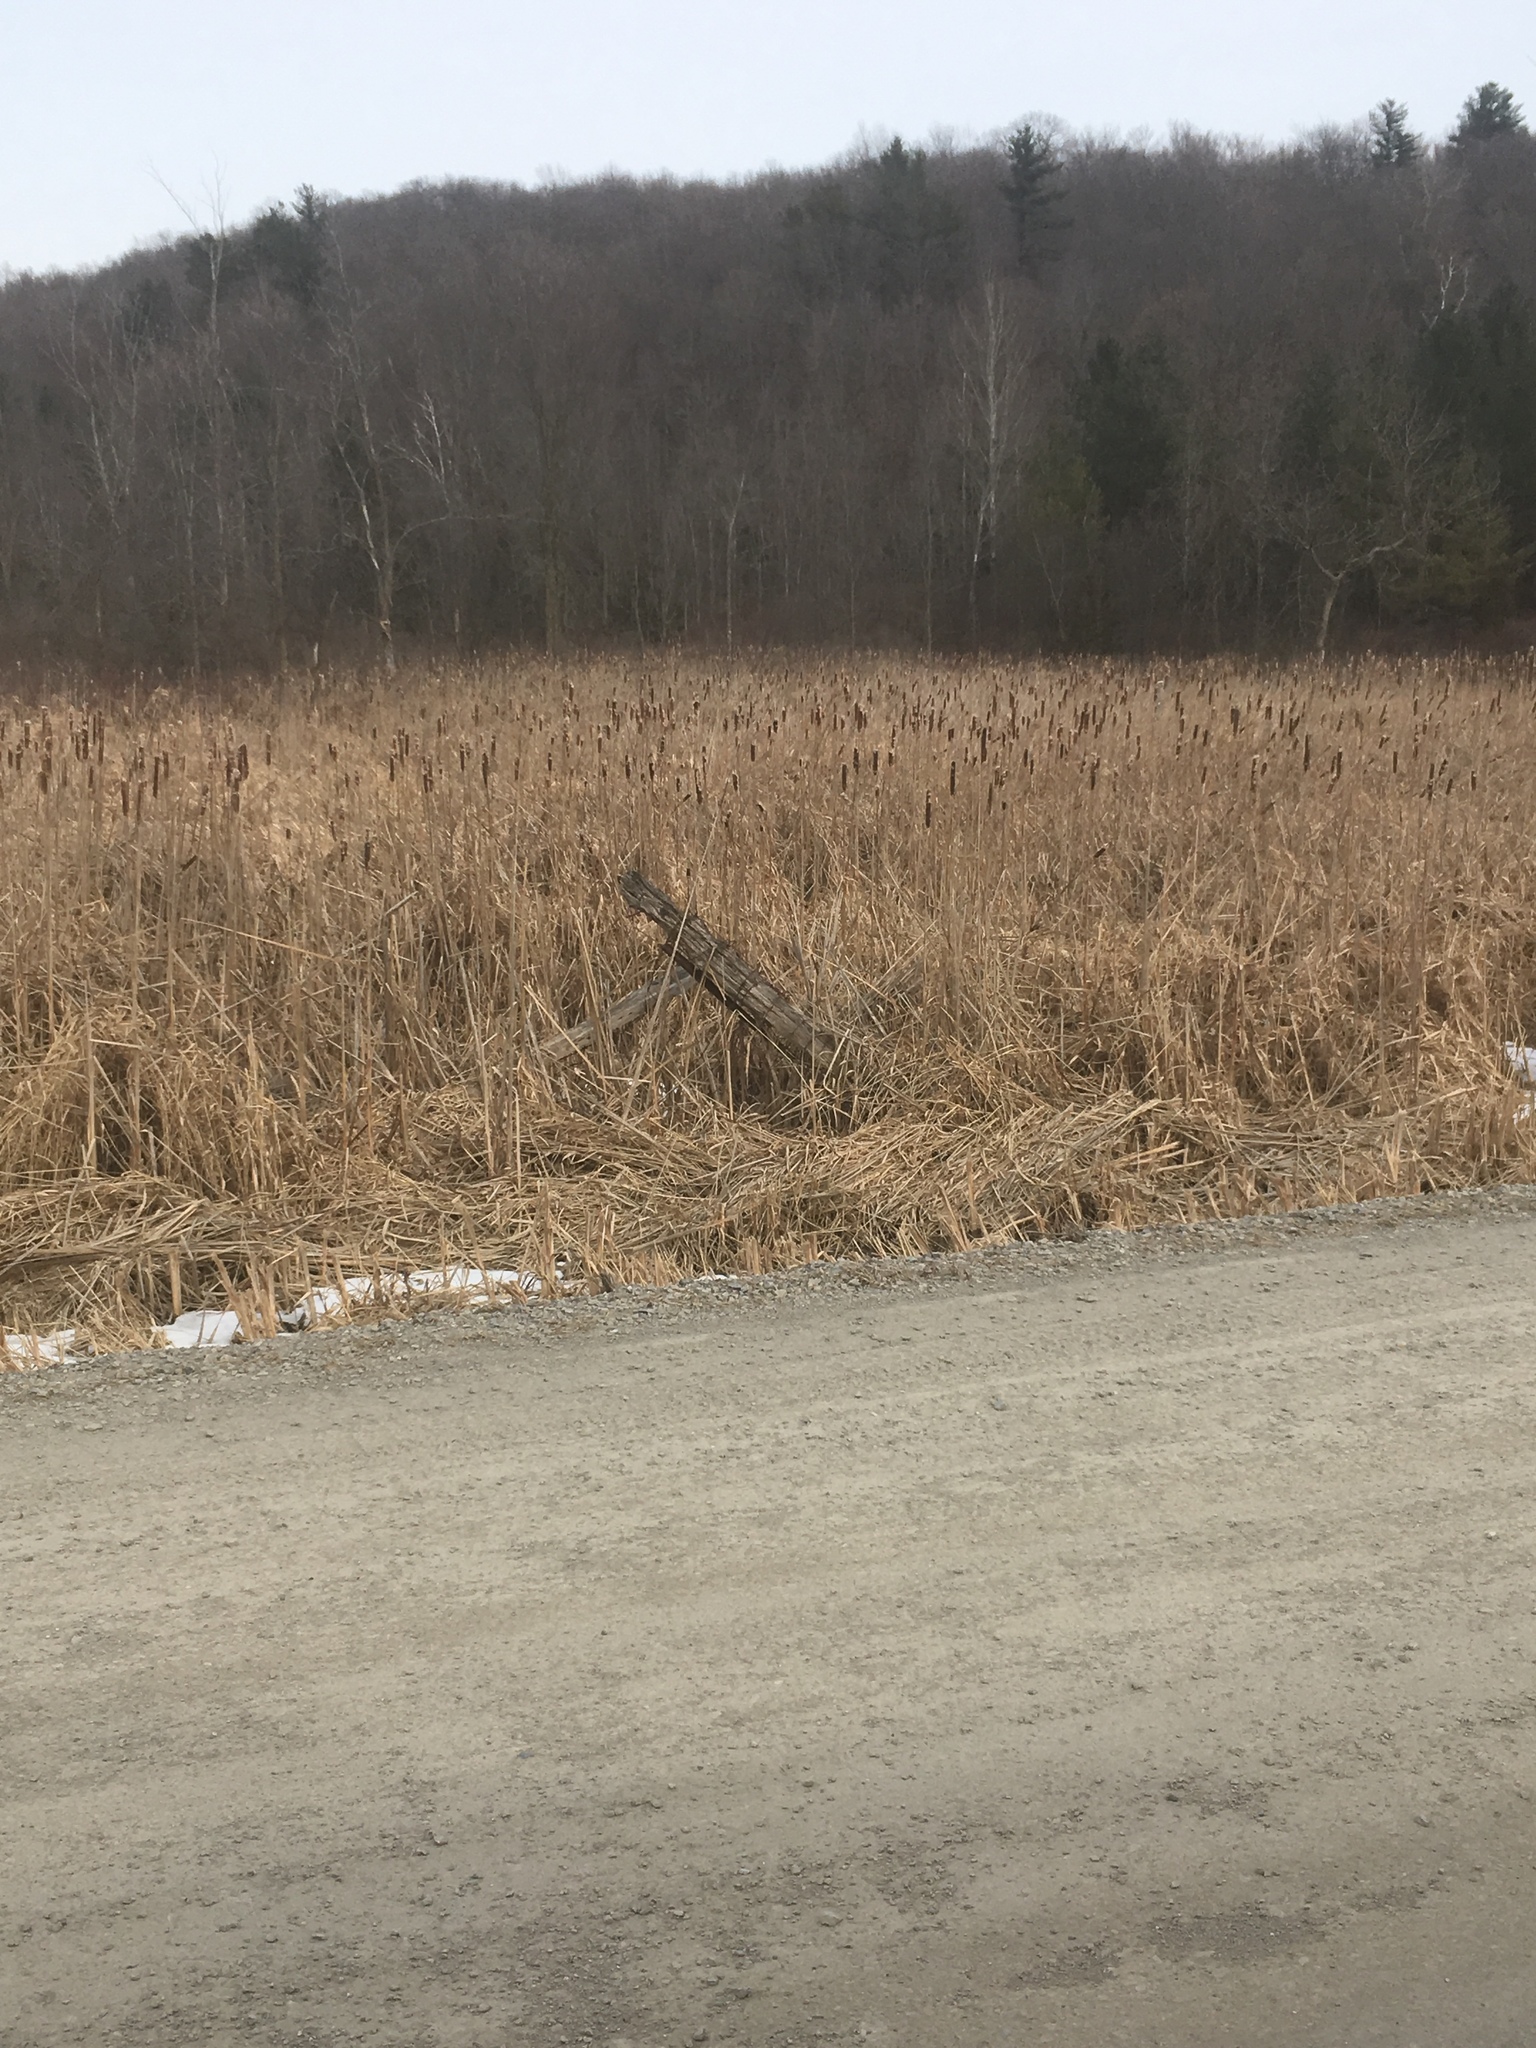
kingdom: Plantae
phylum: Tracheophyta
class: Liliopsida
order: Poales
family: Typhaceae
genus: Typha
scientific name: Typha
